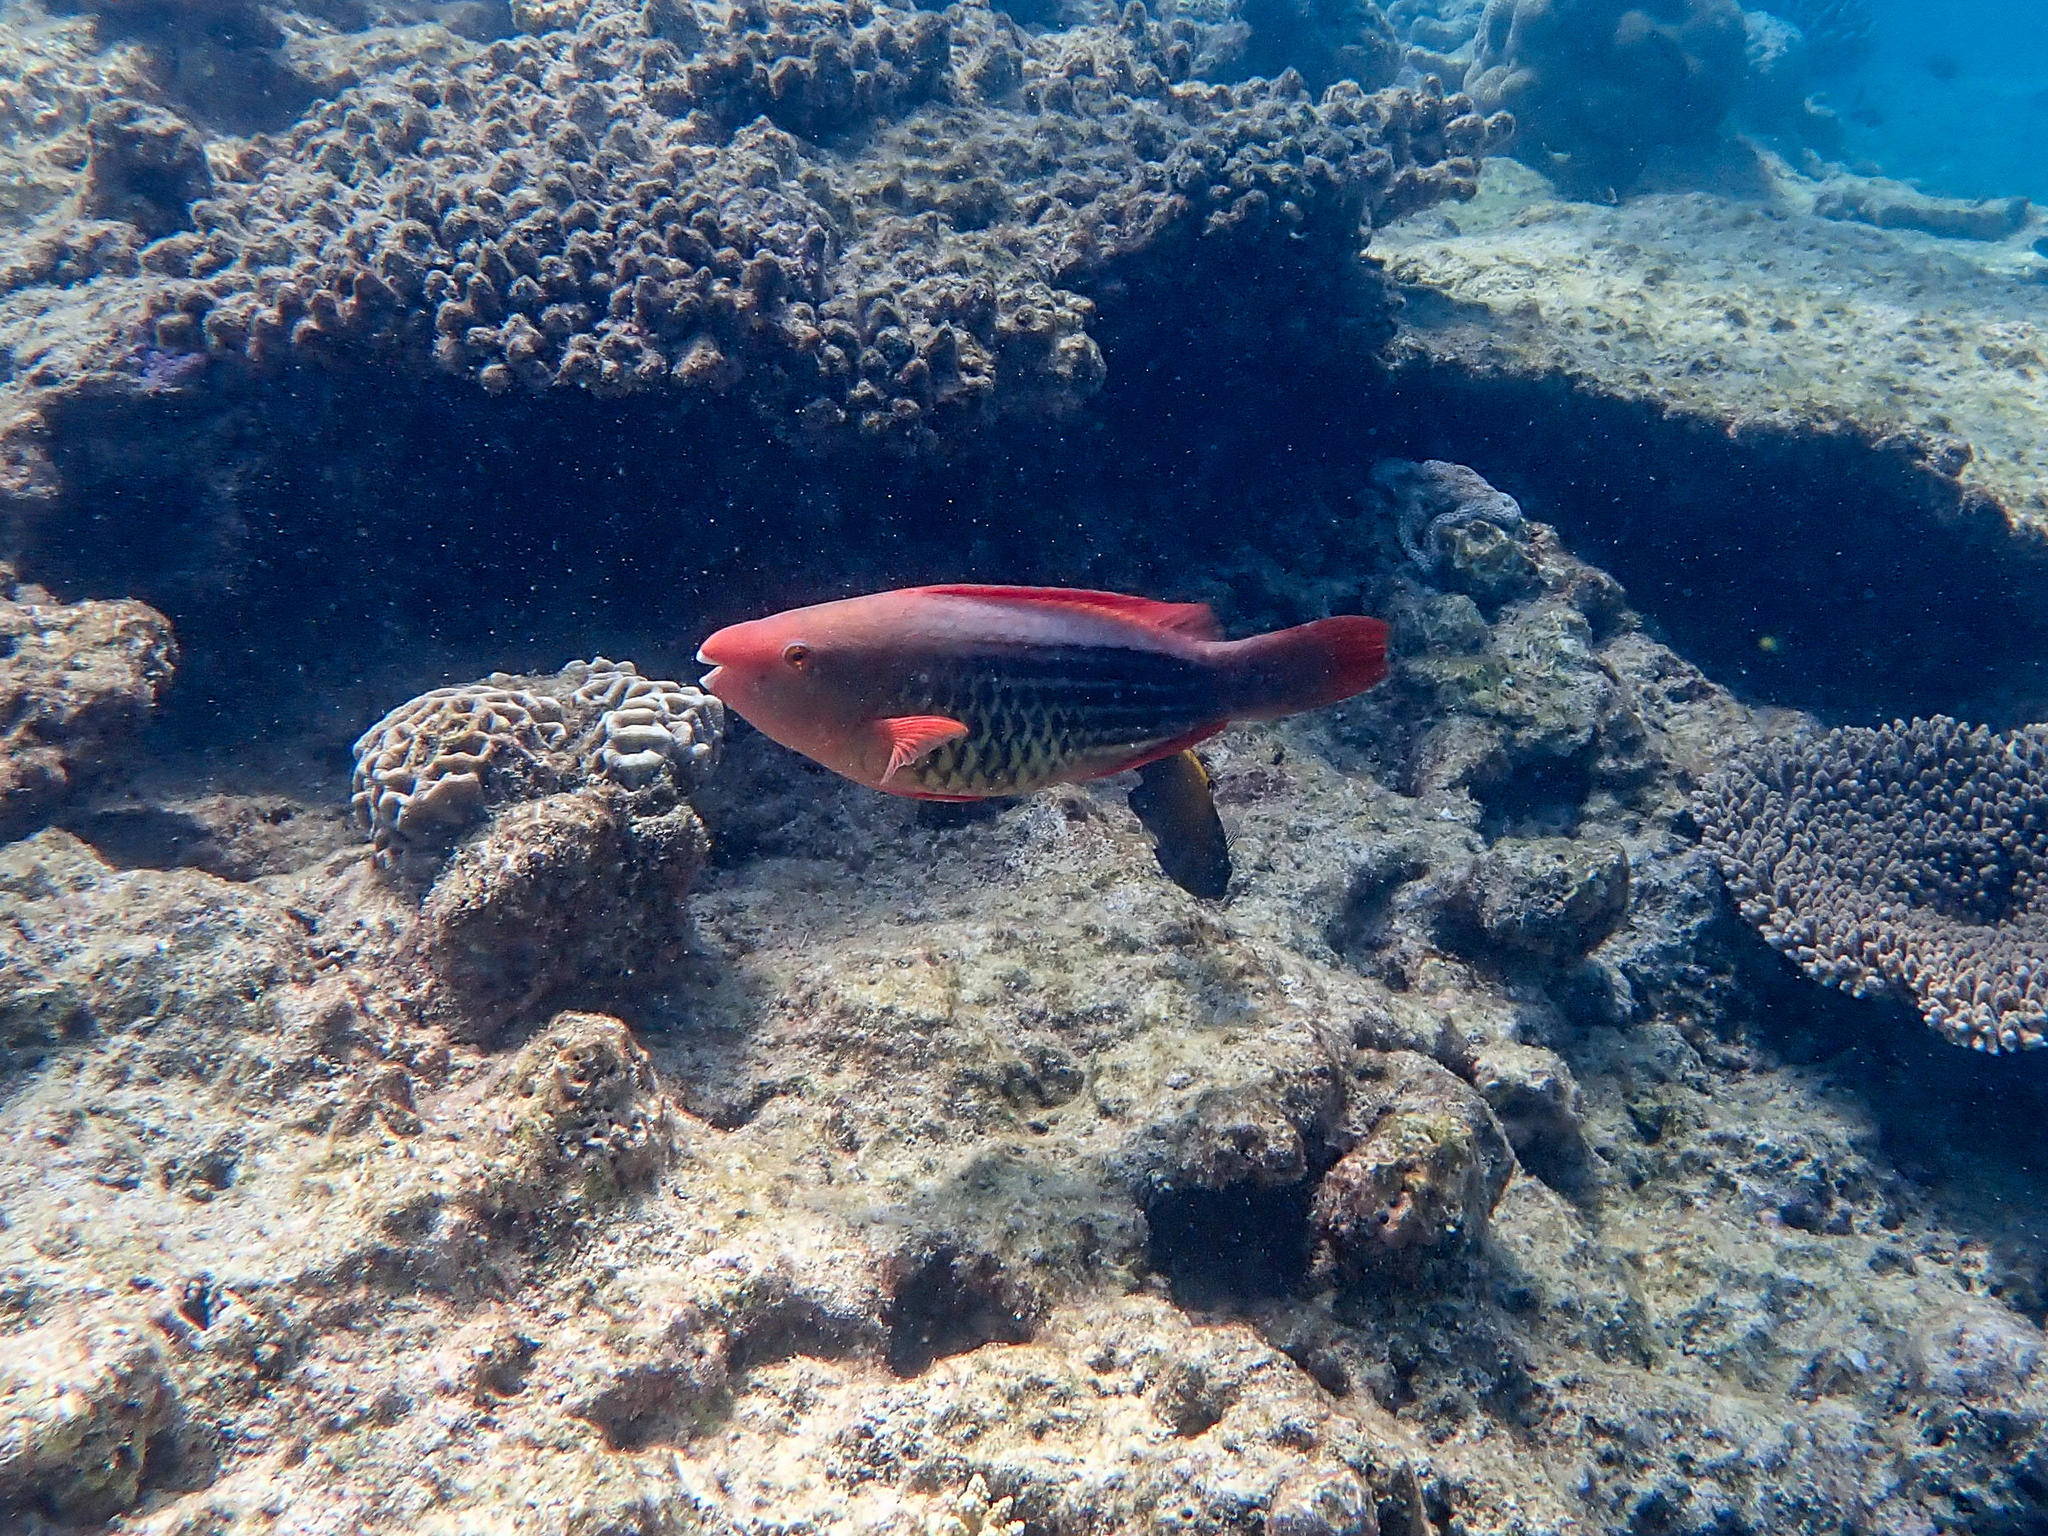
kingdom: Animalia
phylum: Chordata
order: Perciformes
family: Scaridae
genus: Scarus
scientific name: Scarus frenatus
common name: Bridled parrotfish
